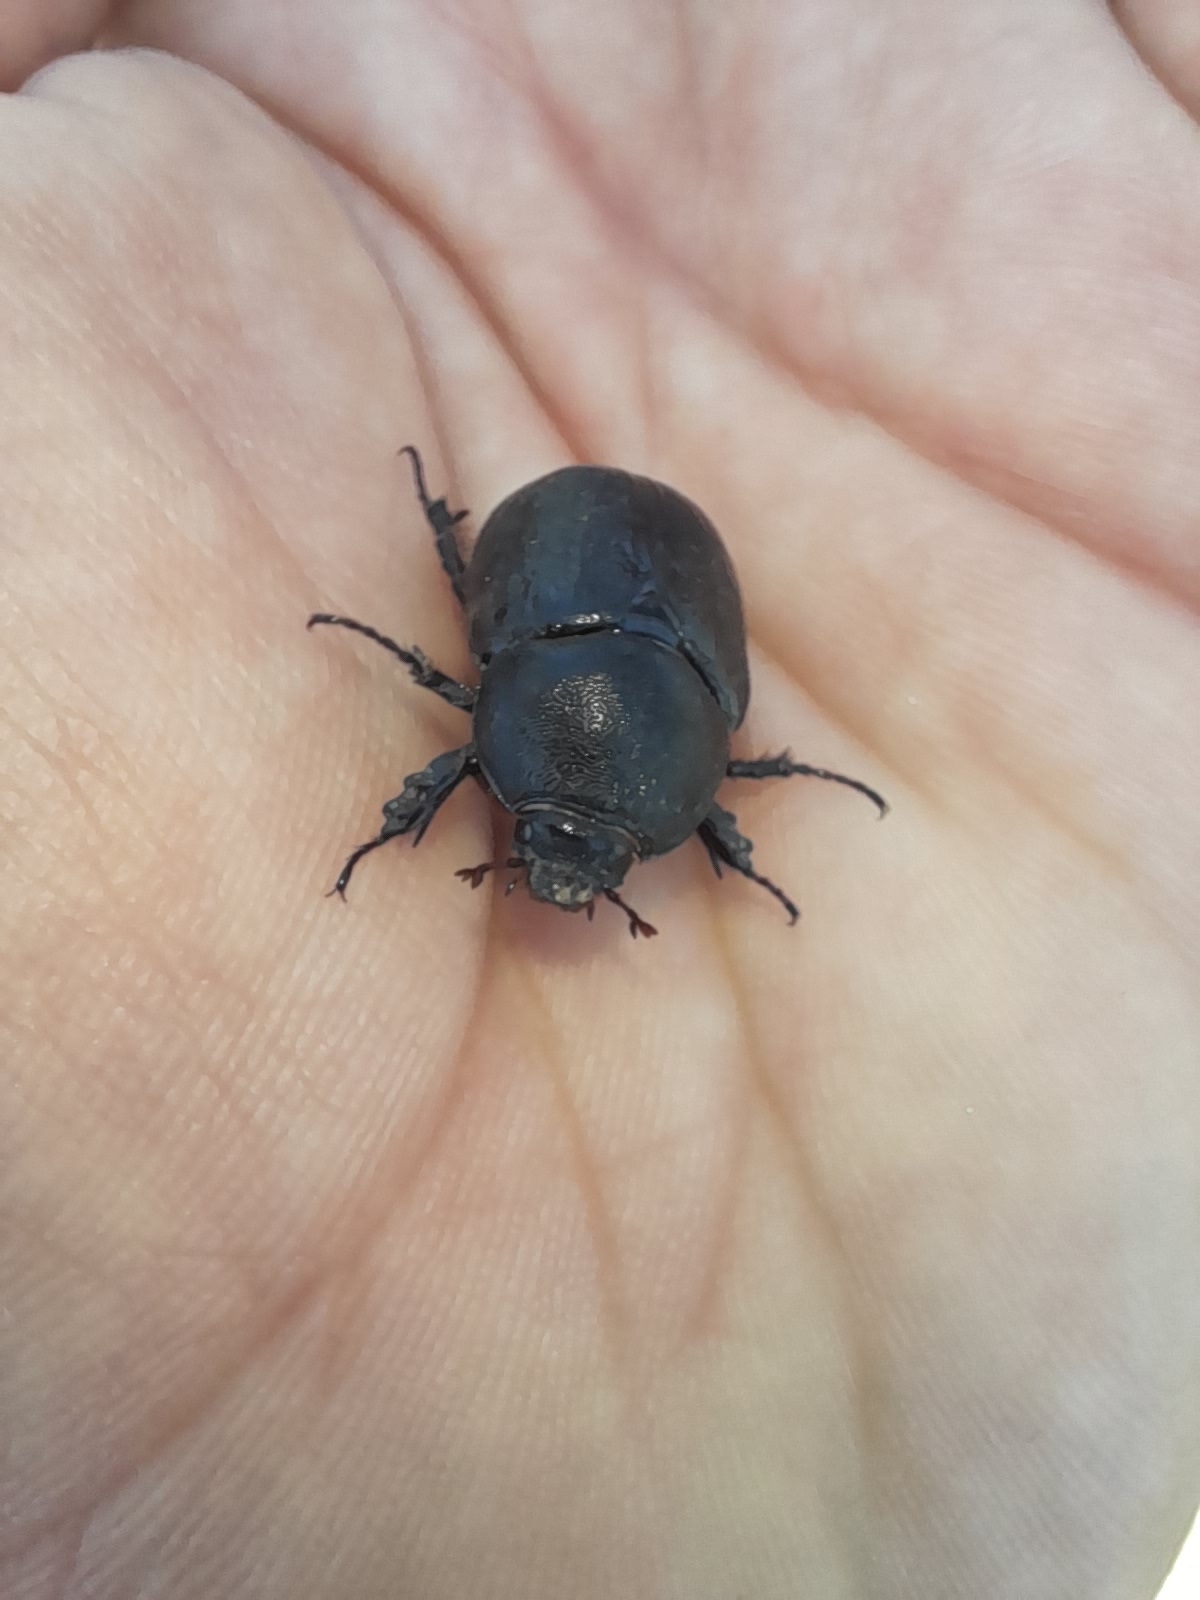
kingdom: Animalia
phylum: Arthropoda
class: Insecta
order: Coleoptera
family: Scarabaeidae
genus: Pentodon
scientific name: Pentodon bidens
